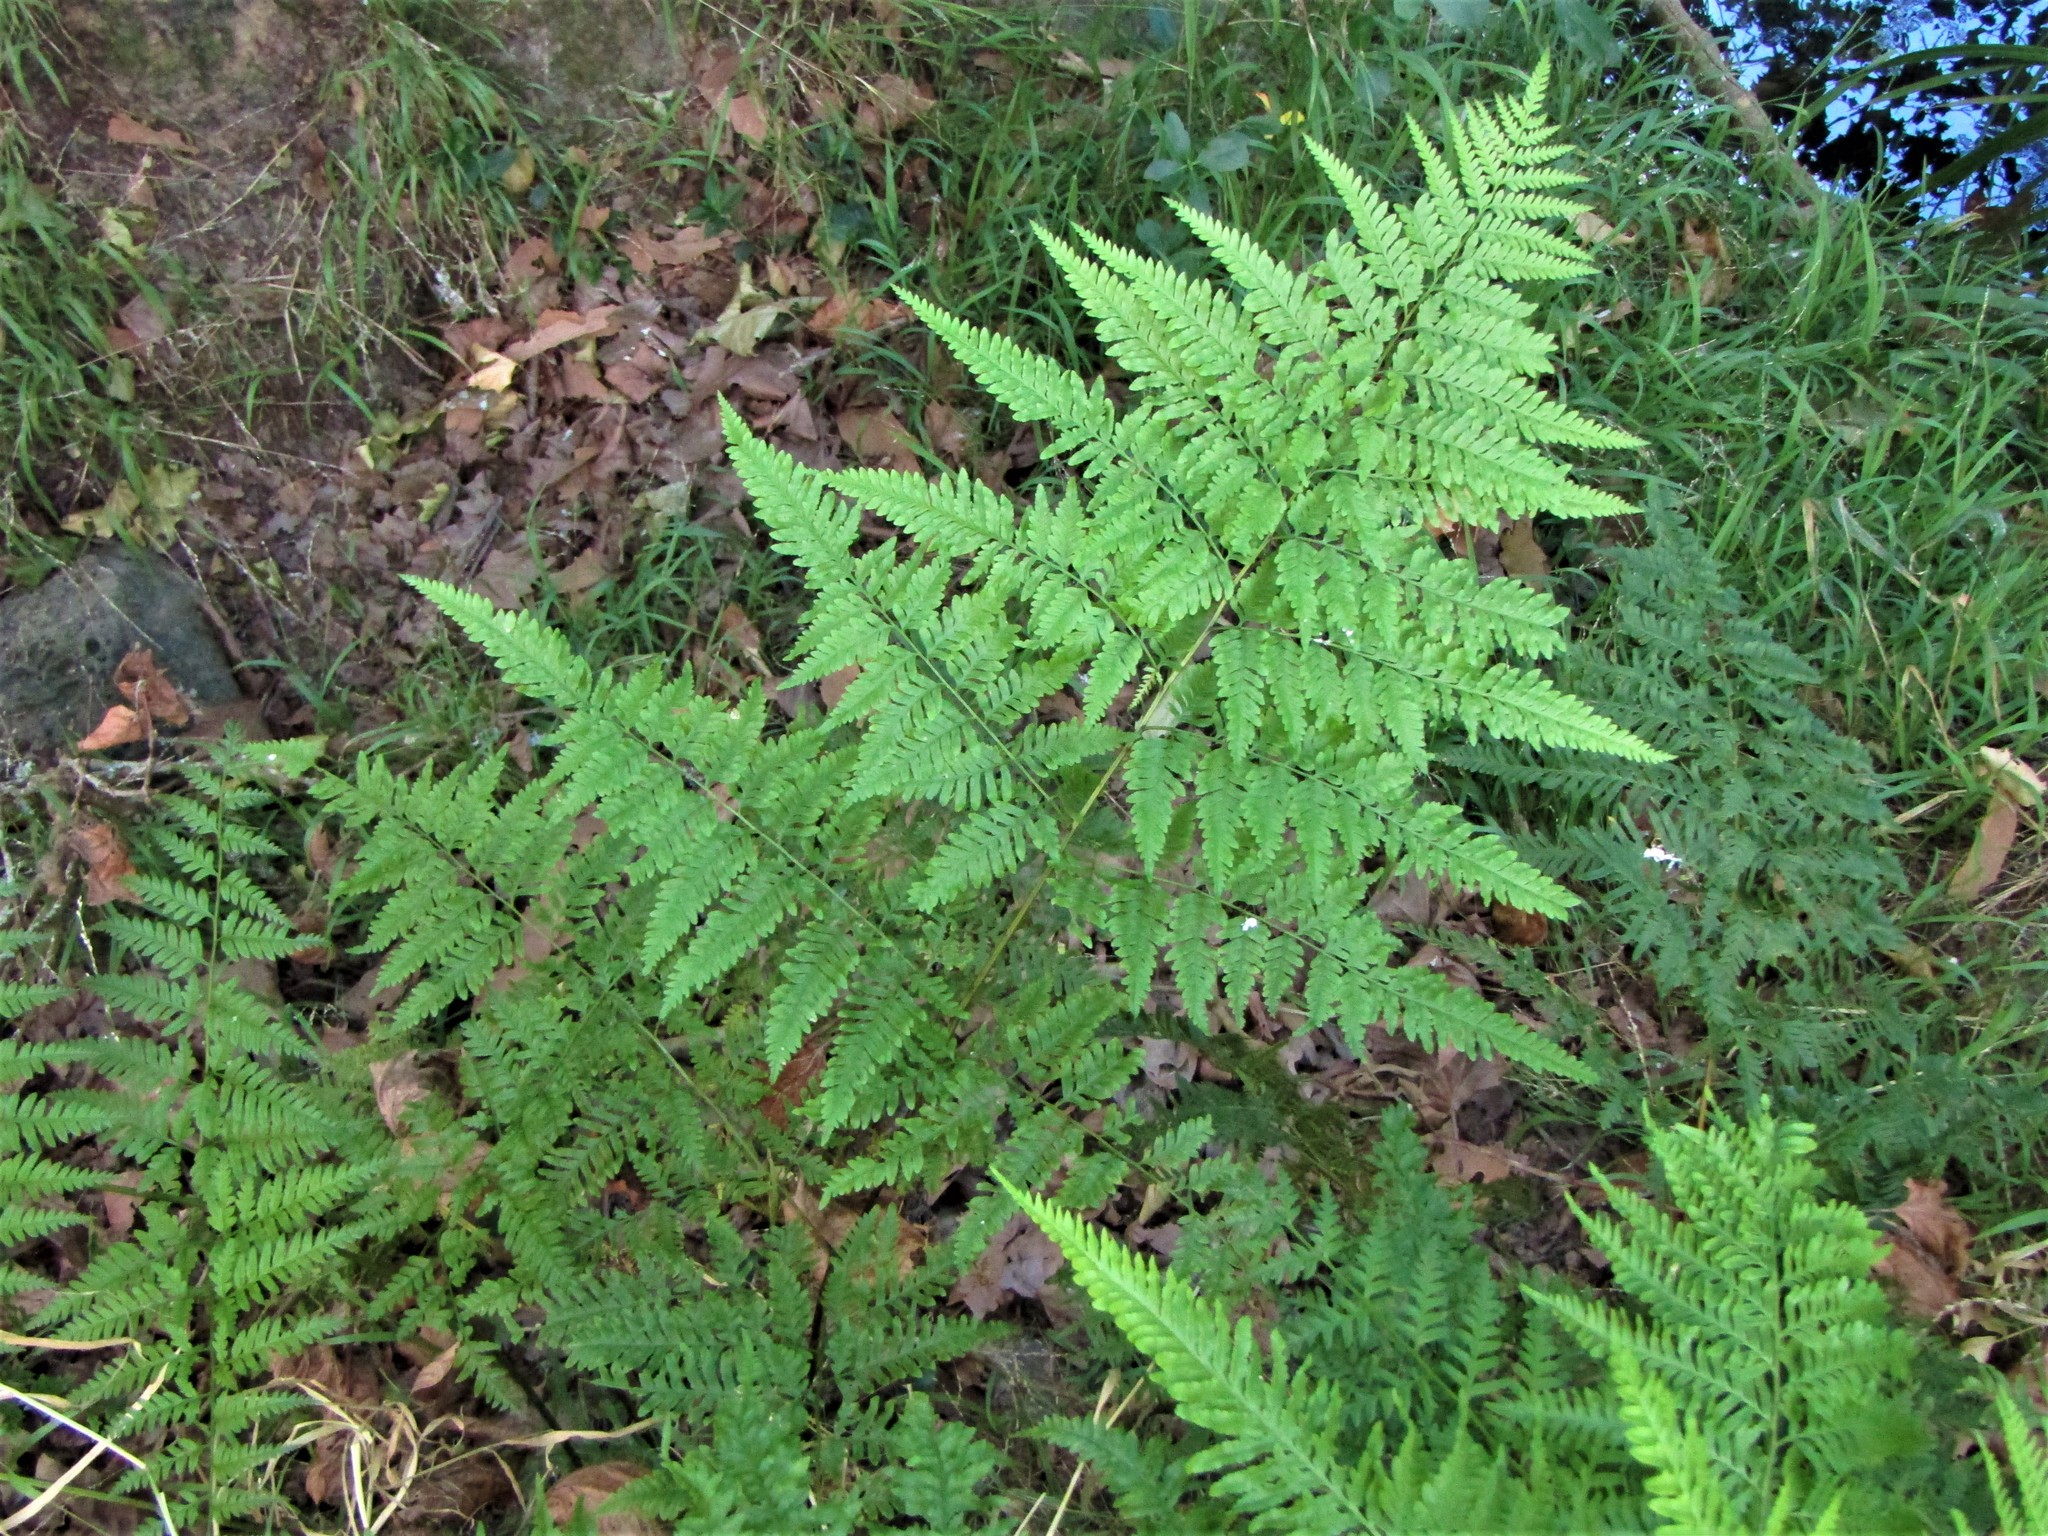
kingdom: Plantae
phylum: Tracheophyta
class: Polypodiopsida
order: Polypodiales
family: Pteridaceae
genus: Pteris
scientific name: Pteris tremula
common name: Australian brake
